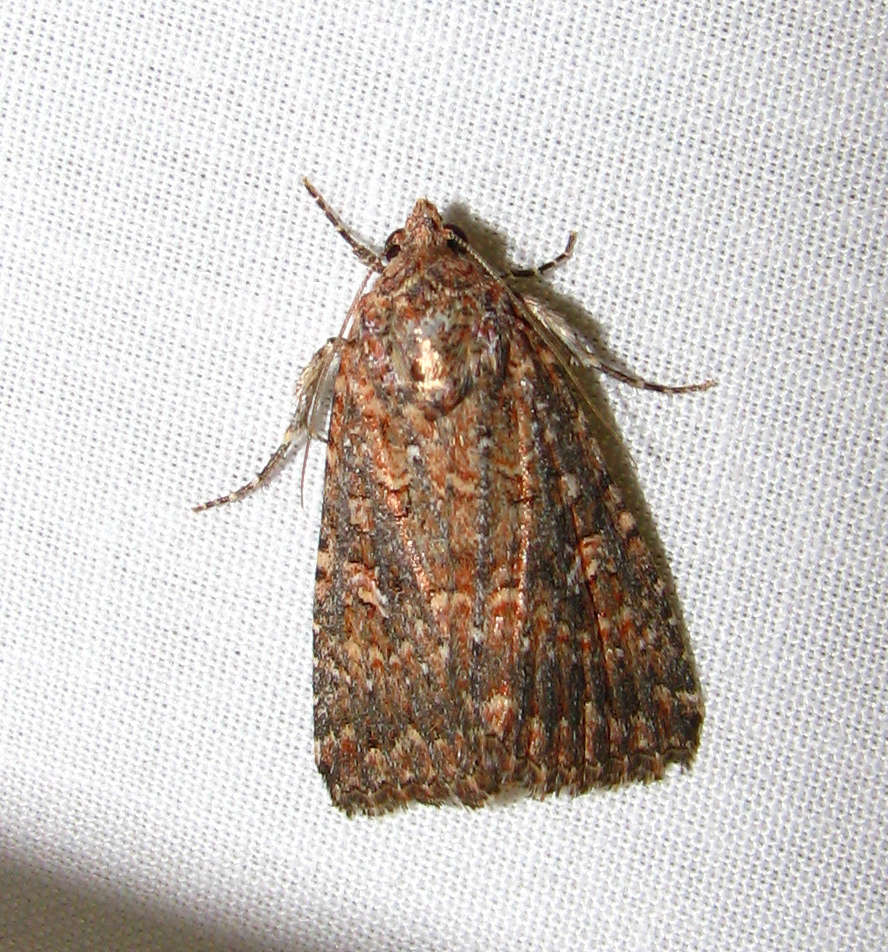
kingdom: Animalia
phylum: Arthropoda
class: Insecta
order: Lepidoptera
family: Noctuidae
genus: Hypoperigea
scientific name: Hypoperigea tonsa
